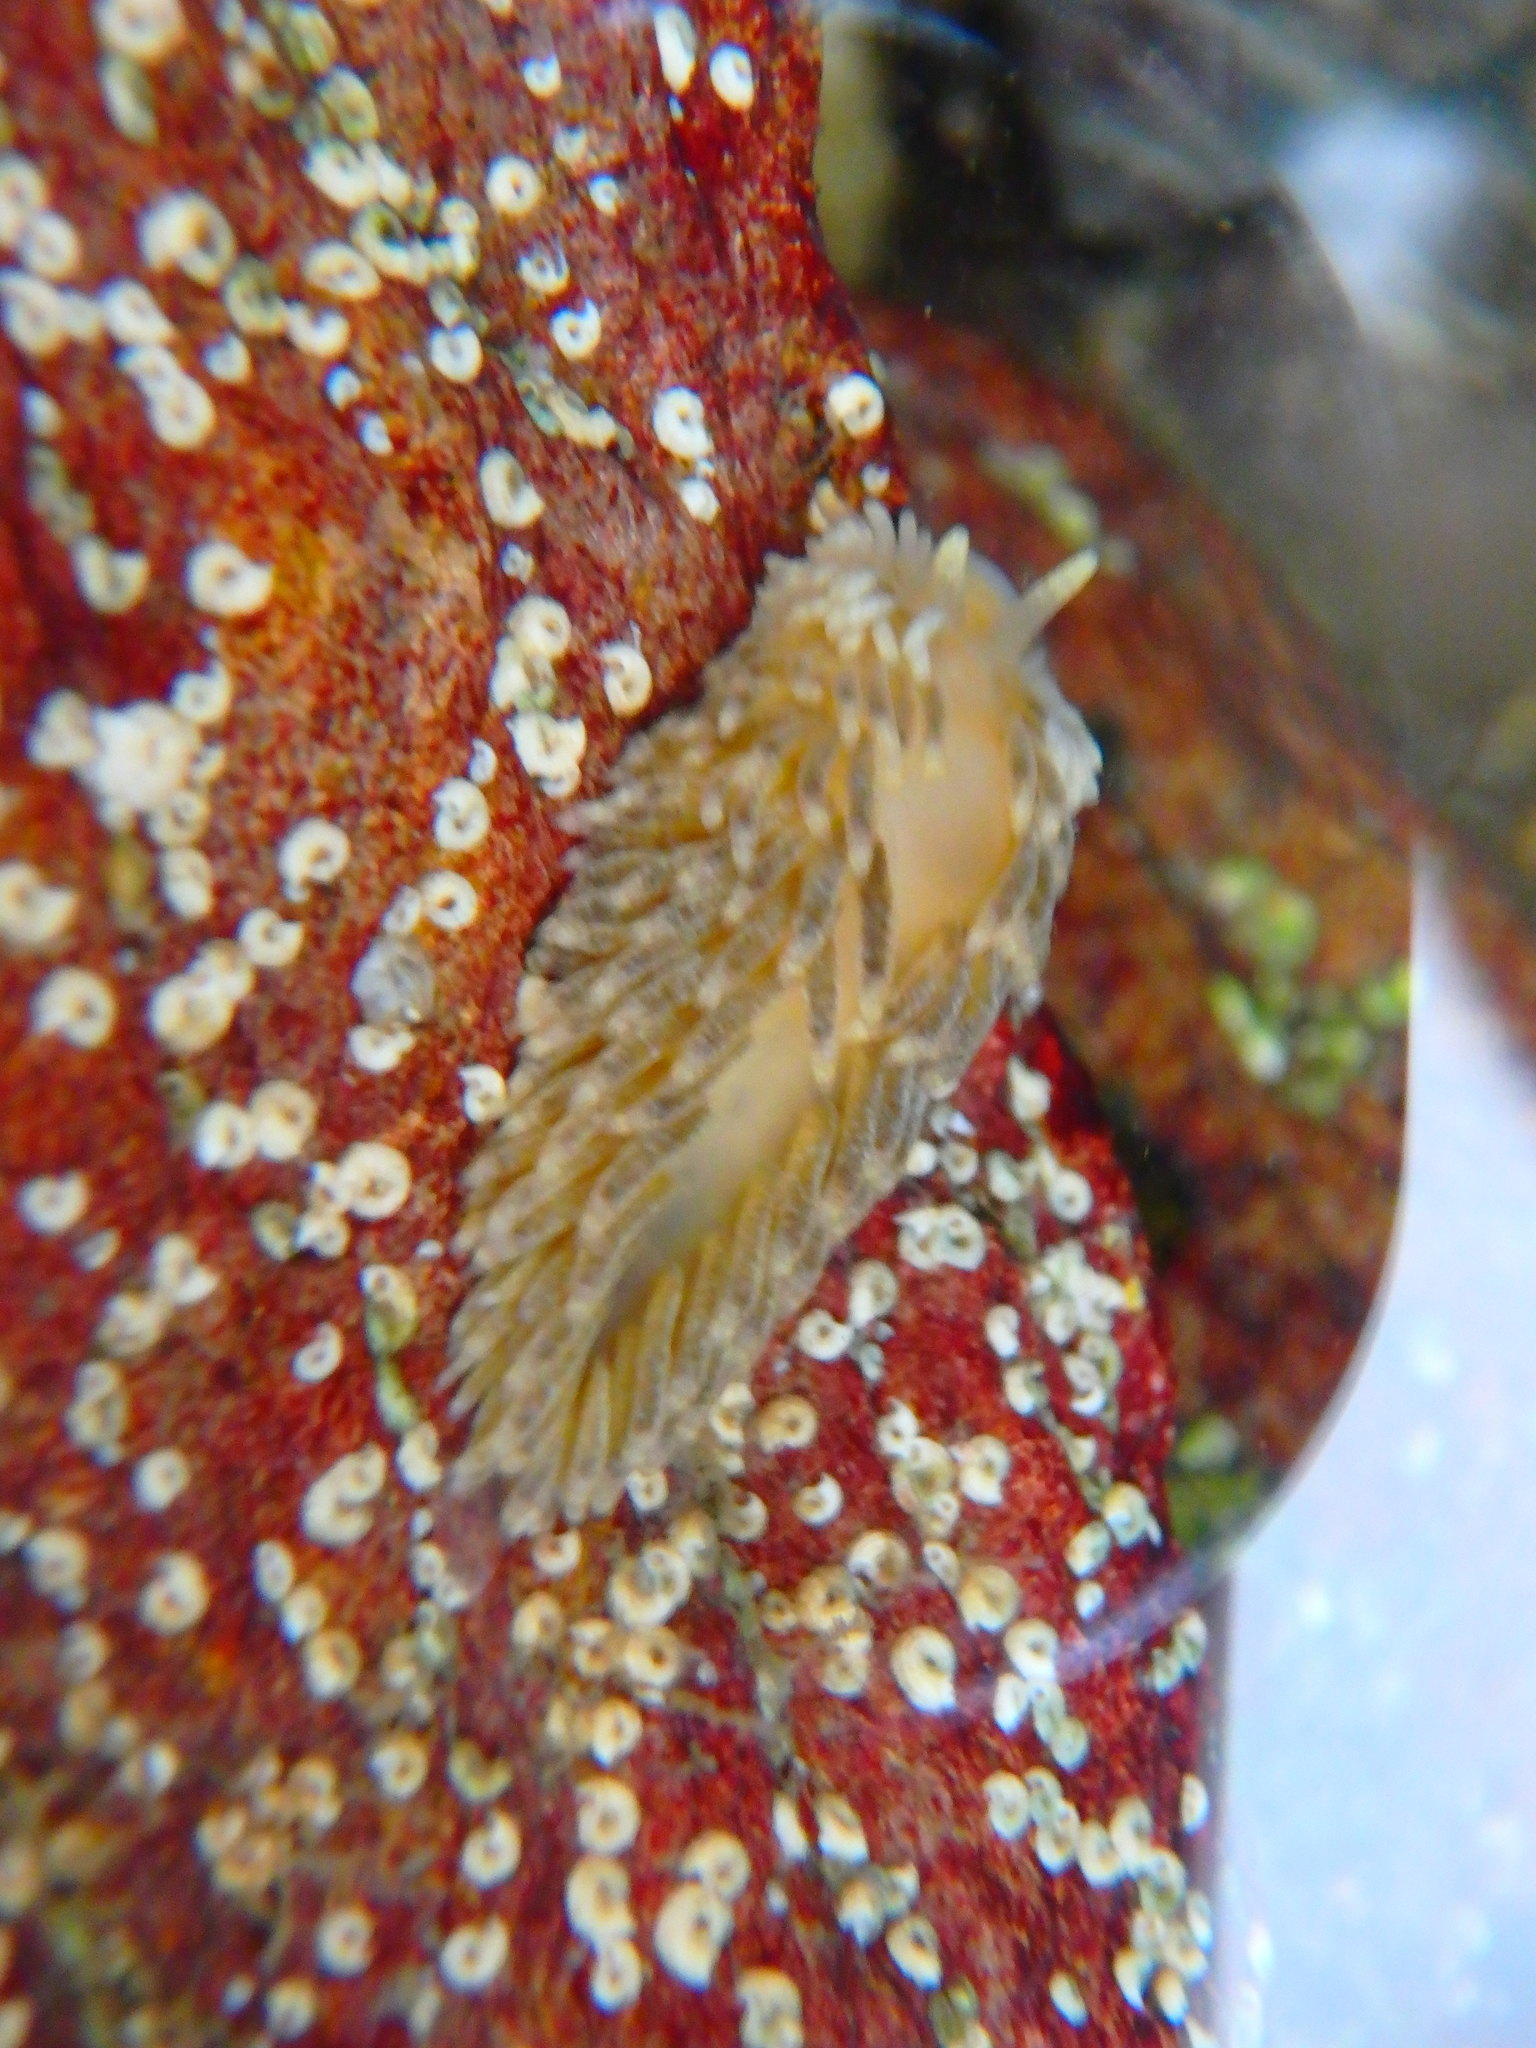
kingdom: Animalia
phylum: Mollusca
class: Gastropoda
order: Nudibranchia
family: Aeolidiidae
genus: Aeolidiella
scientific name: Aeolidiella alderi
